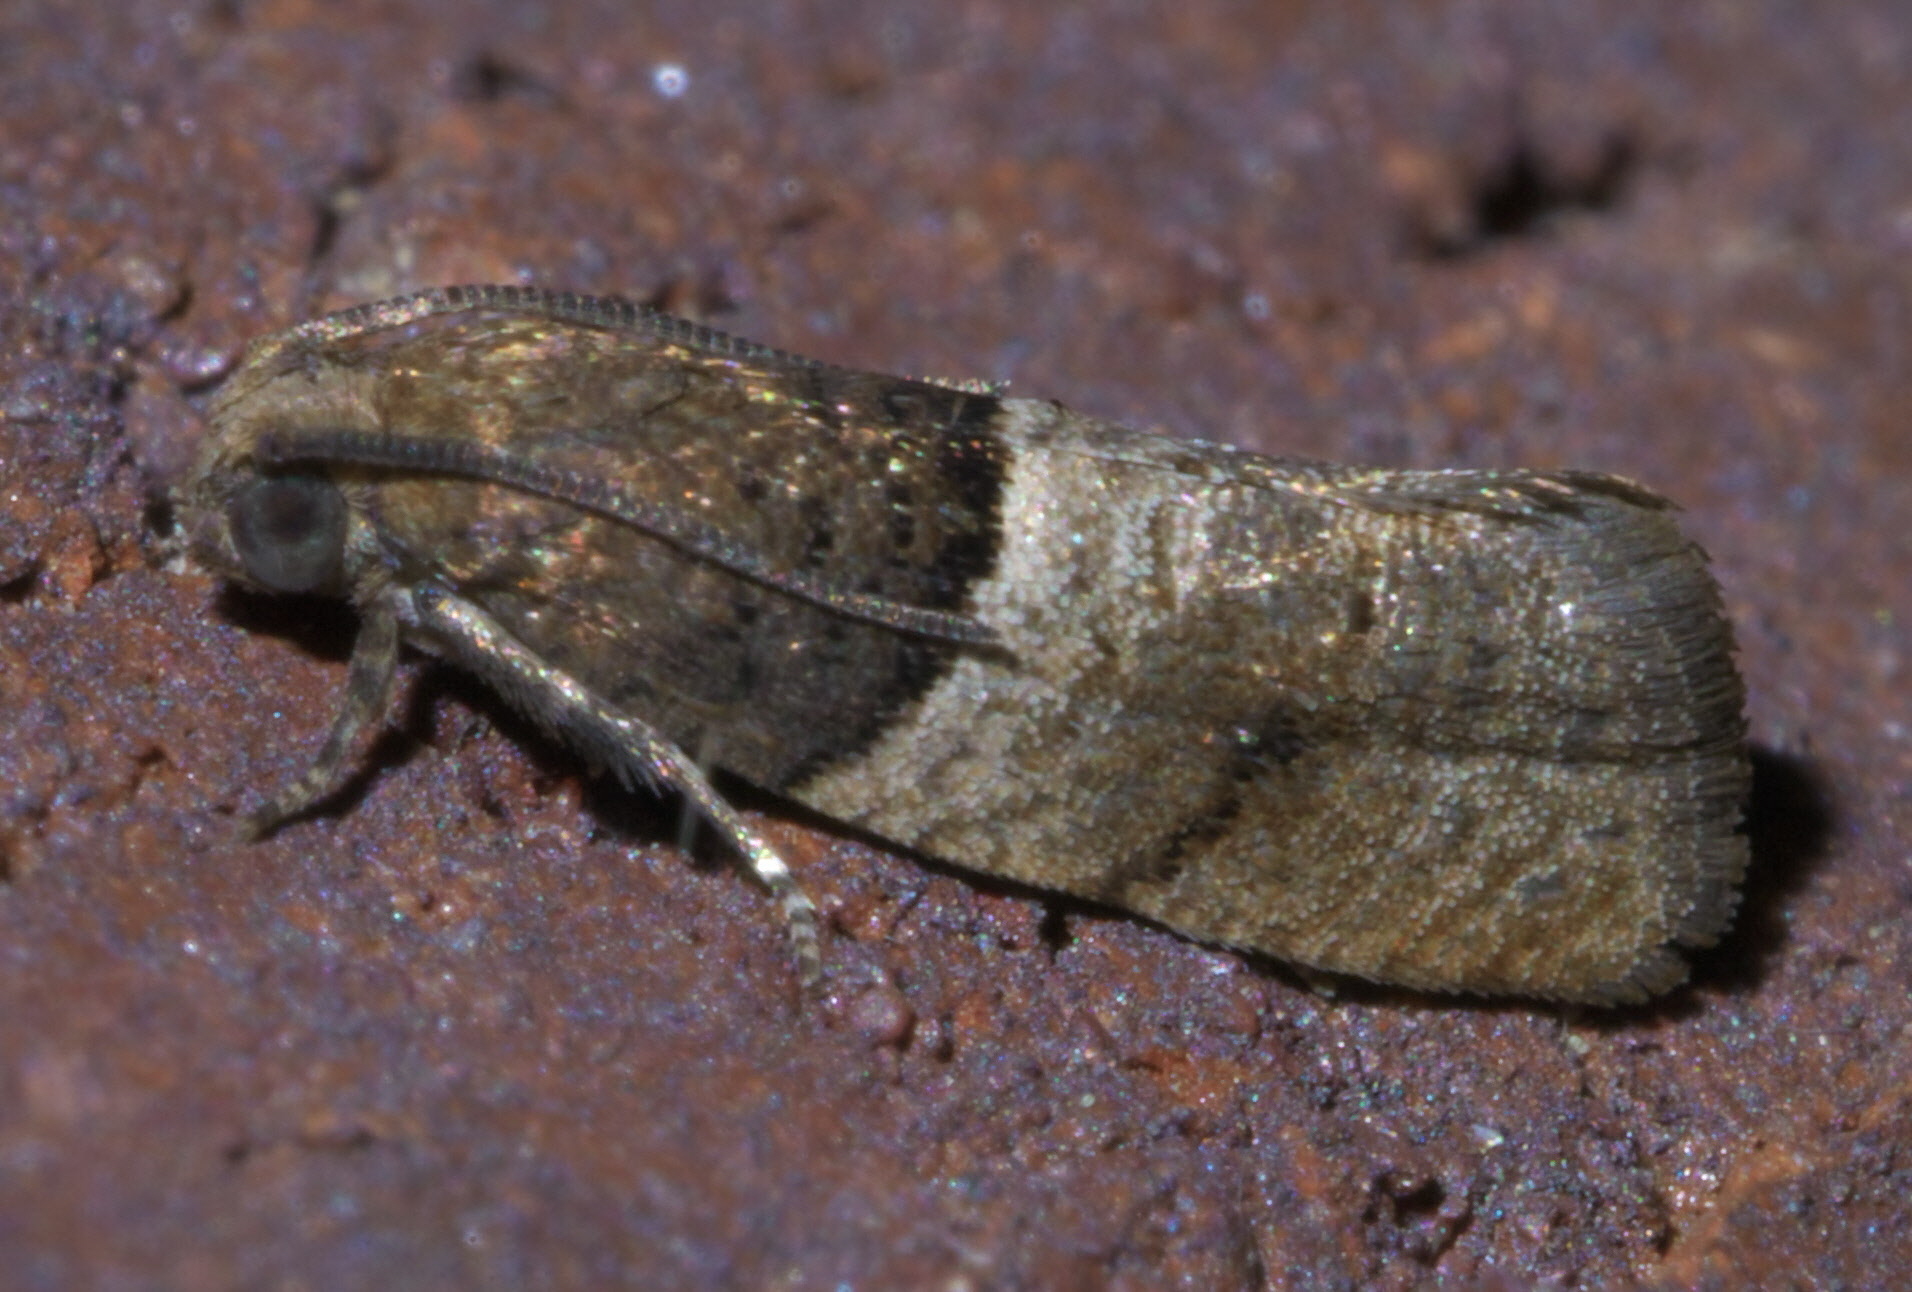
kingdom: Animalia
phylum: Arthropoda
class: Insecta
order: Lepidoptera
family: Tortricidae
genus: Larisa
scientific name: Larisa subsolana
